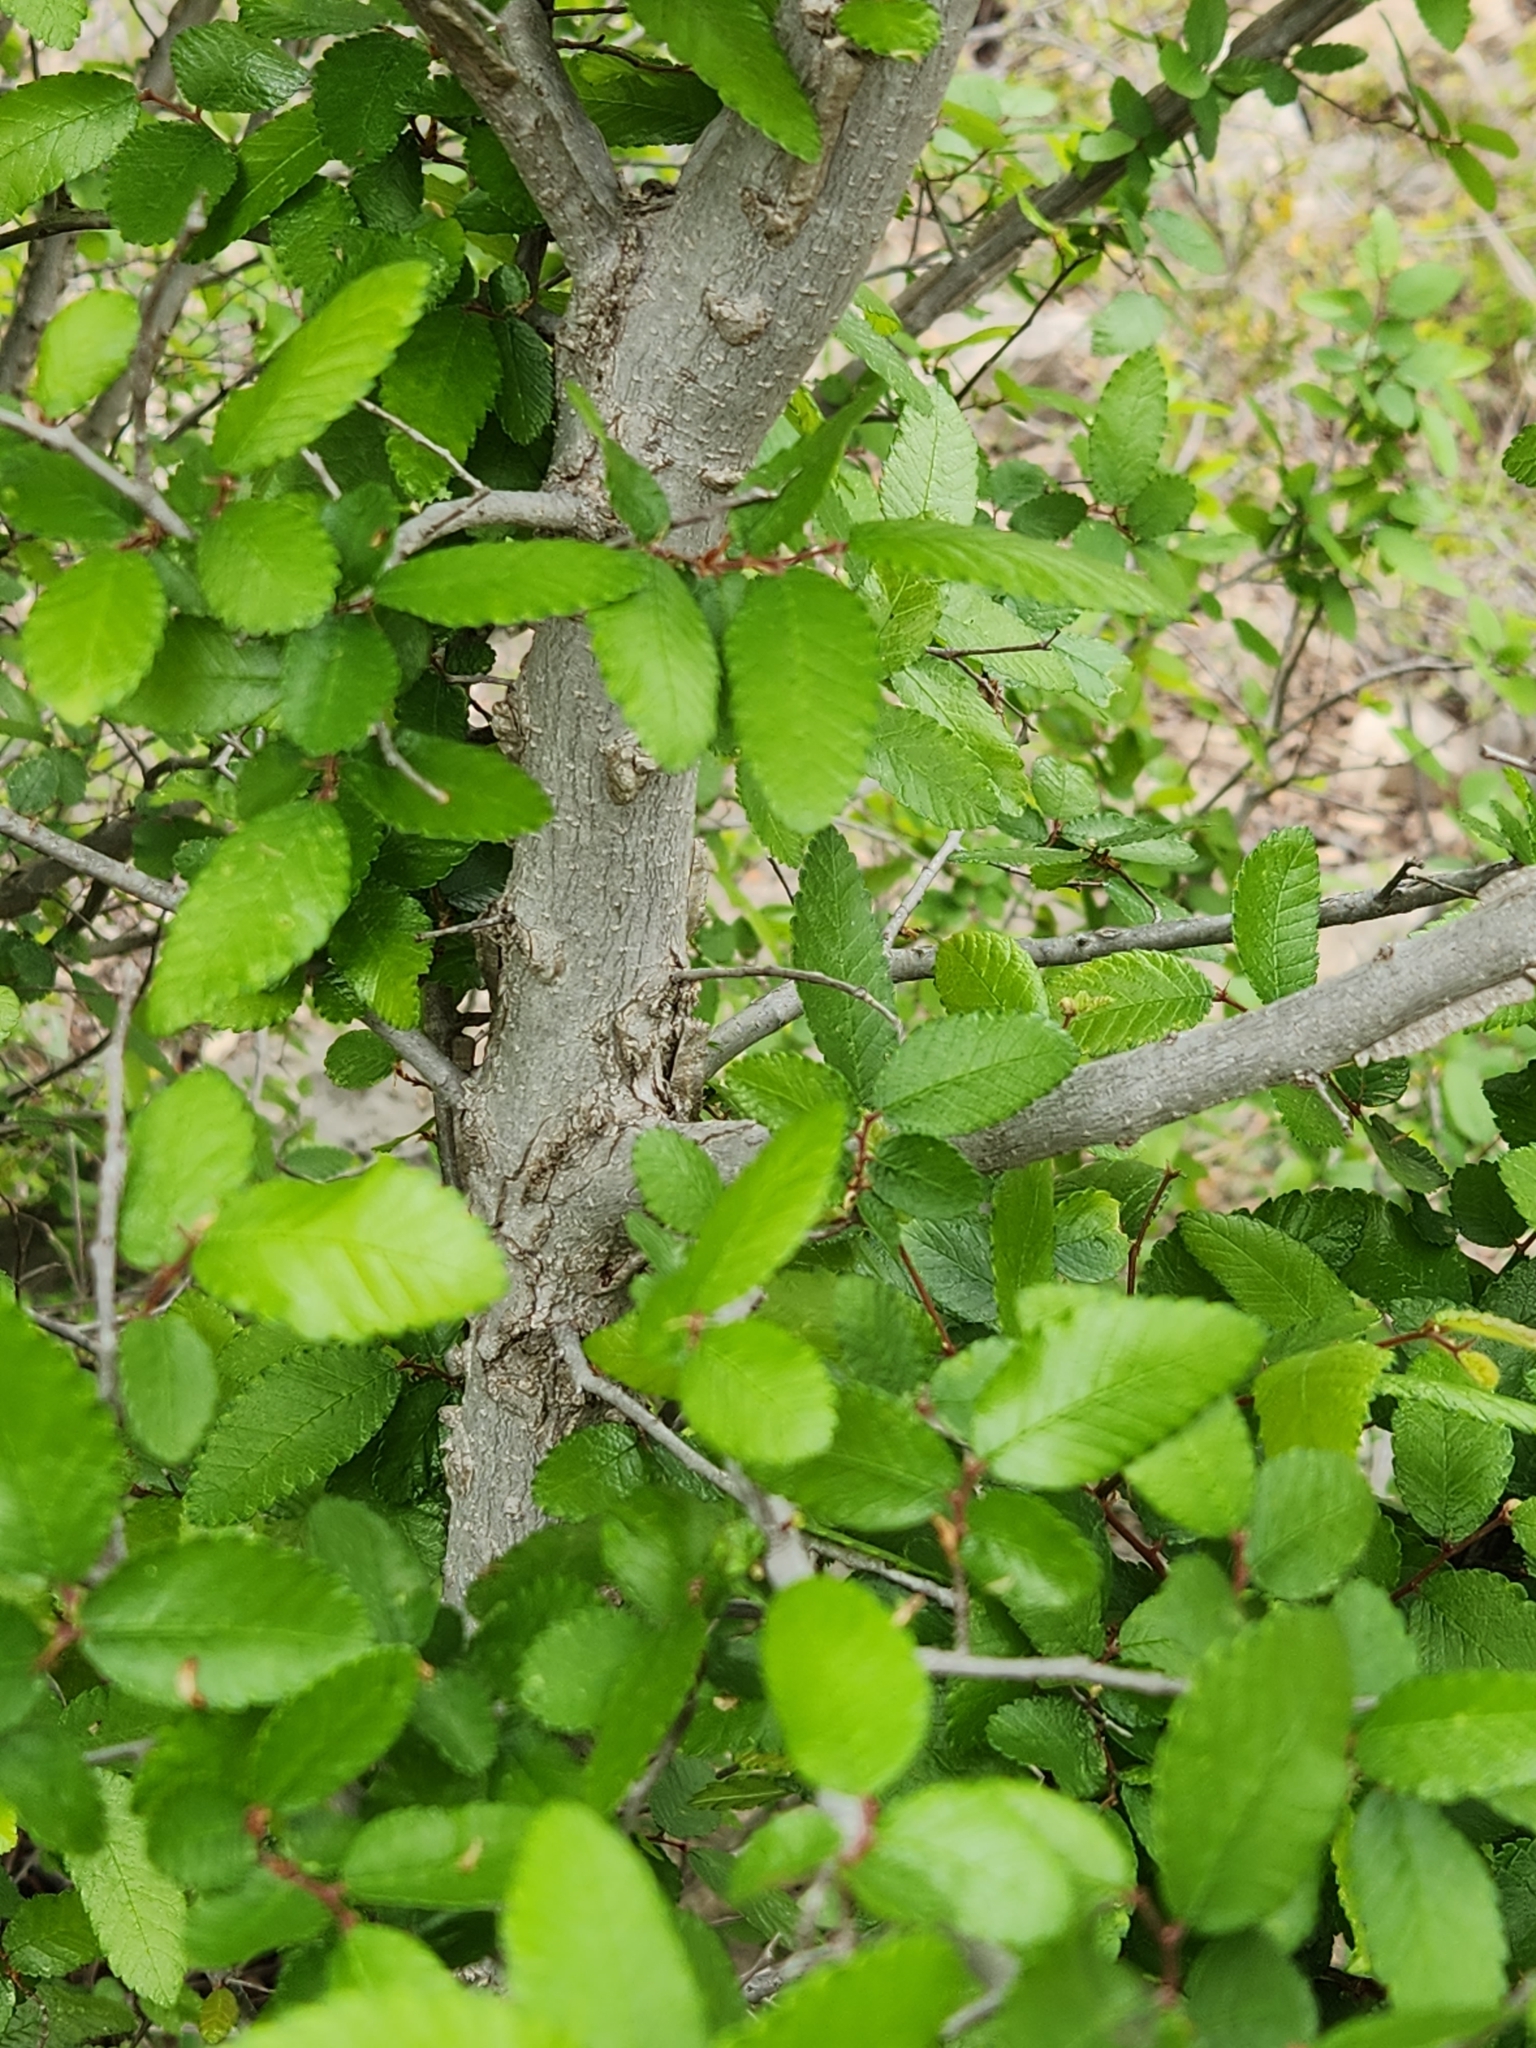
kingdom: Plantae
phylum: Tracheophyta
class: Magnoliopsida
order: Rosales
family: Ulmaceae
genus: Ulmus
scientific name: Ulmus crassifolia
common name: Basket elm
